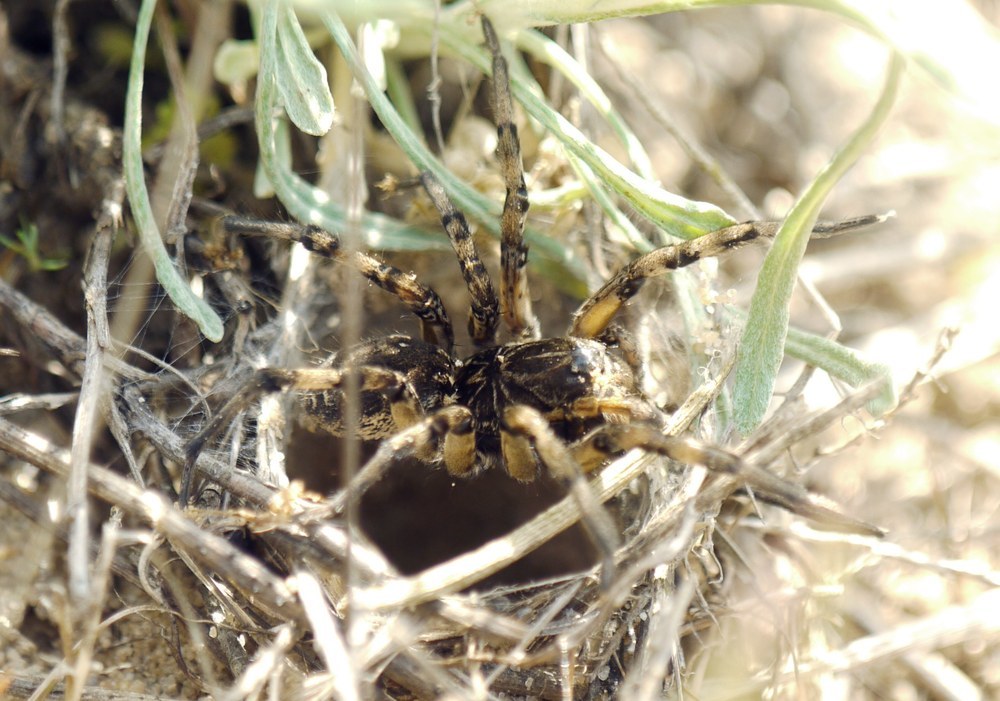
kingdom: Animalia
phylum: Arthropoda
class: Arachnida
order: Araneae
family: Lycosidae
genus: Geolycosa
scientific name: Geolycosa vultuosa
